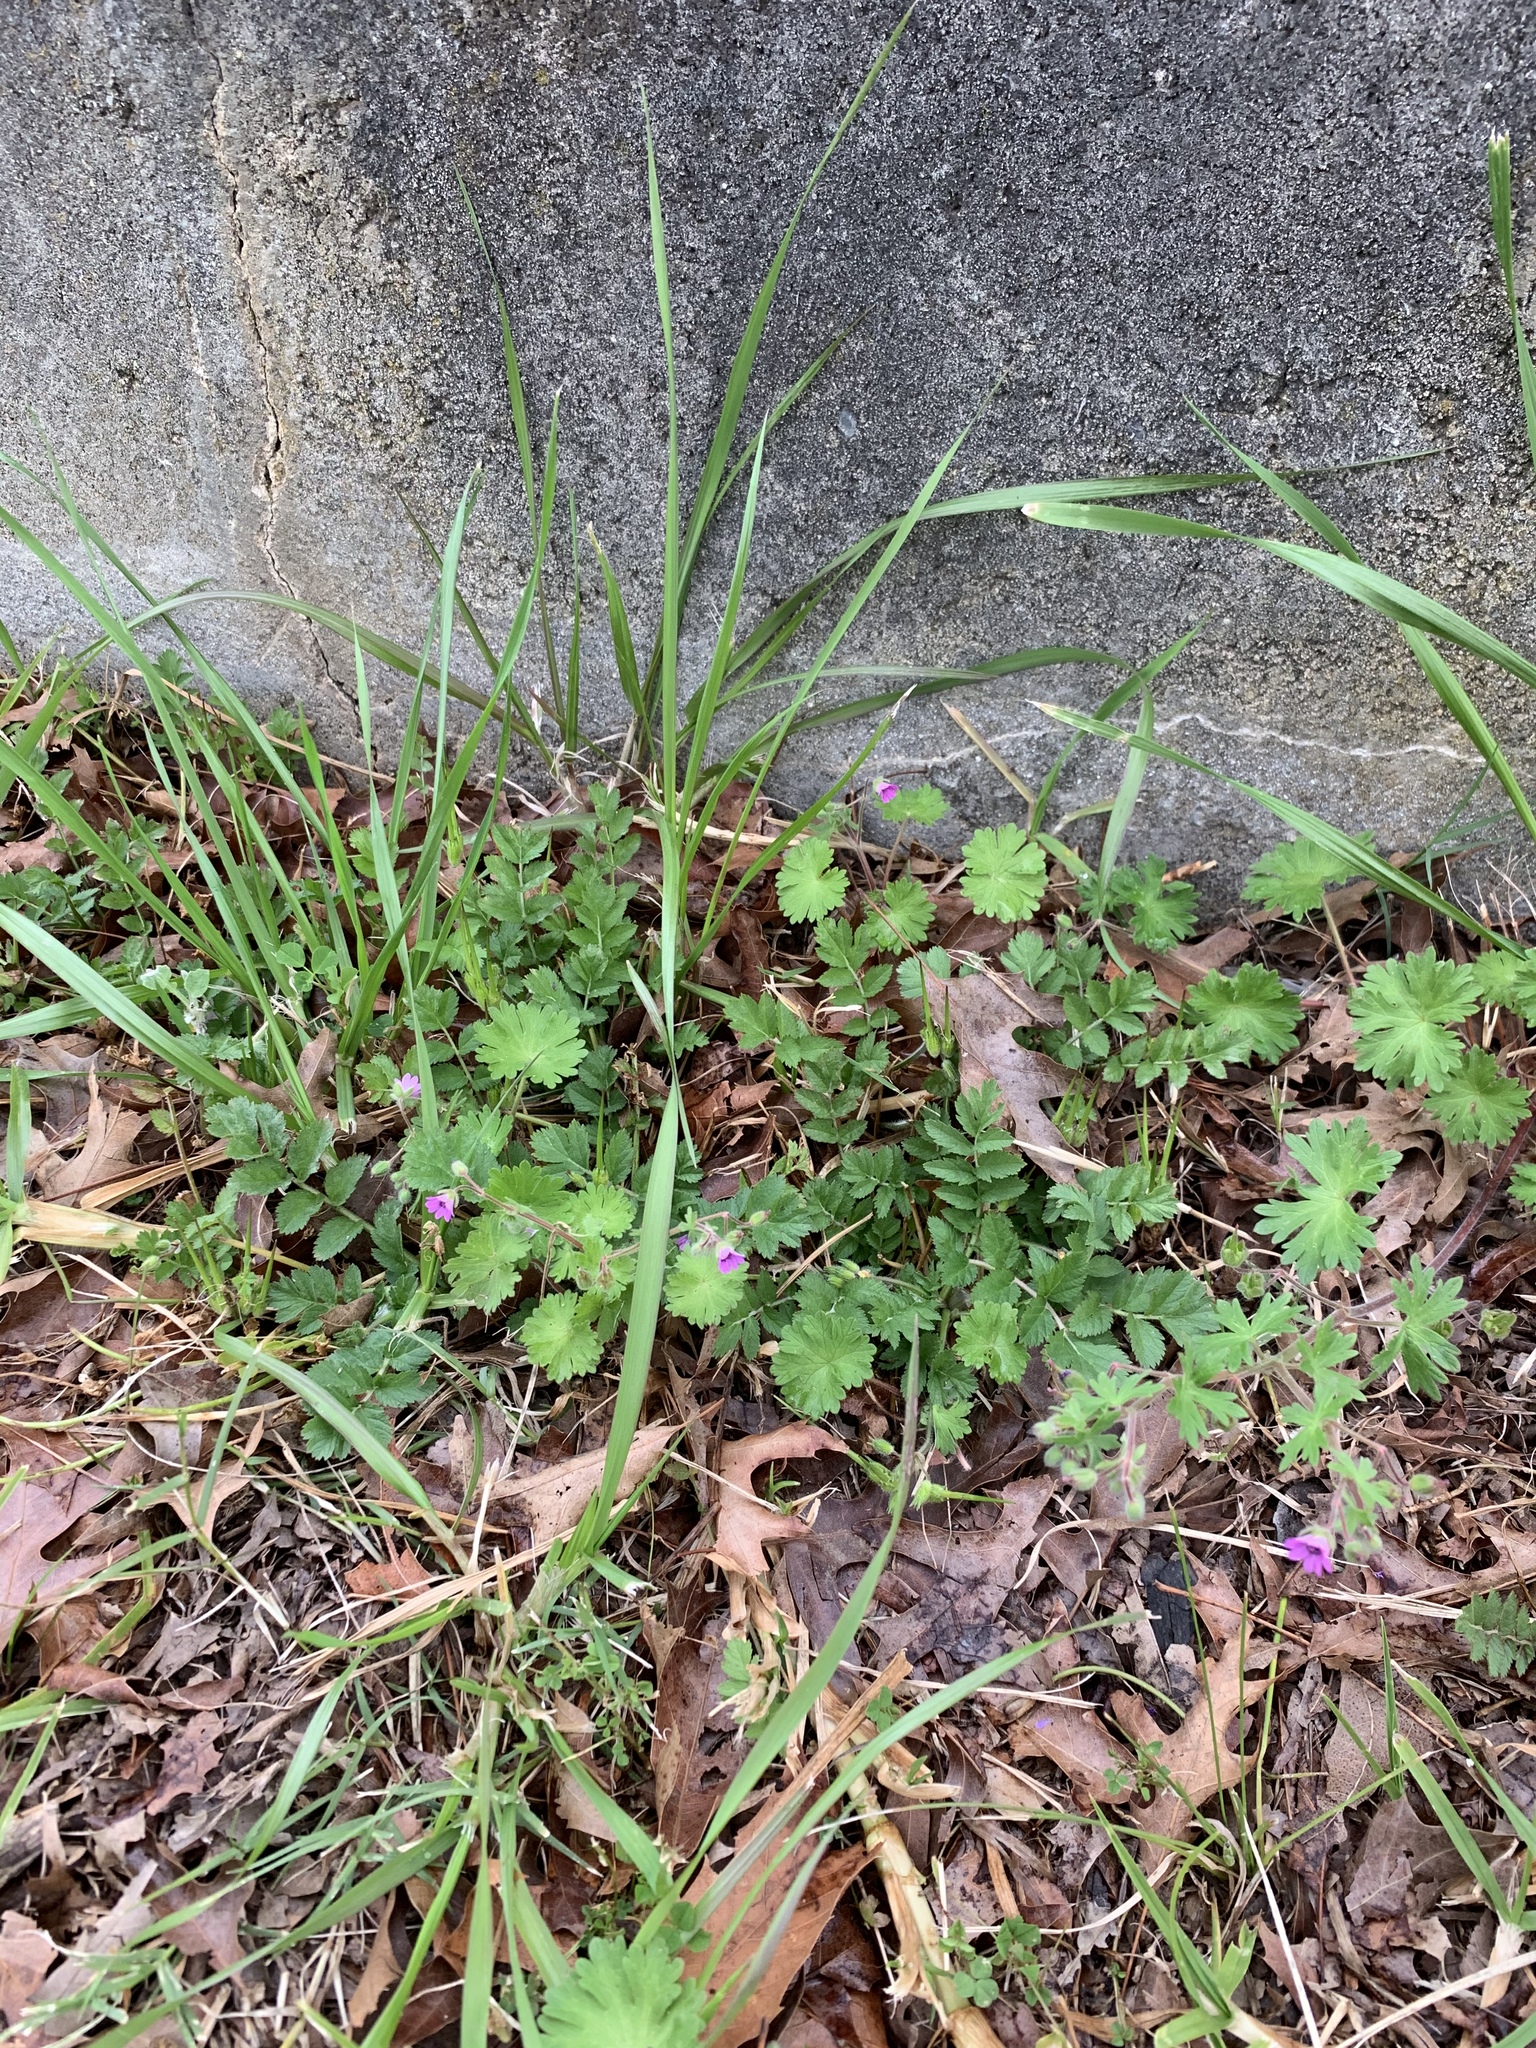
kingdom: Plantae
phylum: Tracheophyta
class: Magnoliopsida
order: Geraniales
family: Geraniaceae
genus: Geranium
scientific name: Geranium molle
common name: Dove's-foot crane's-bill
